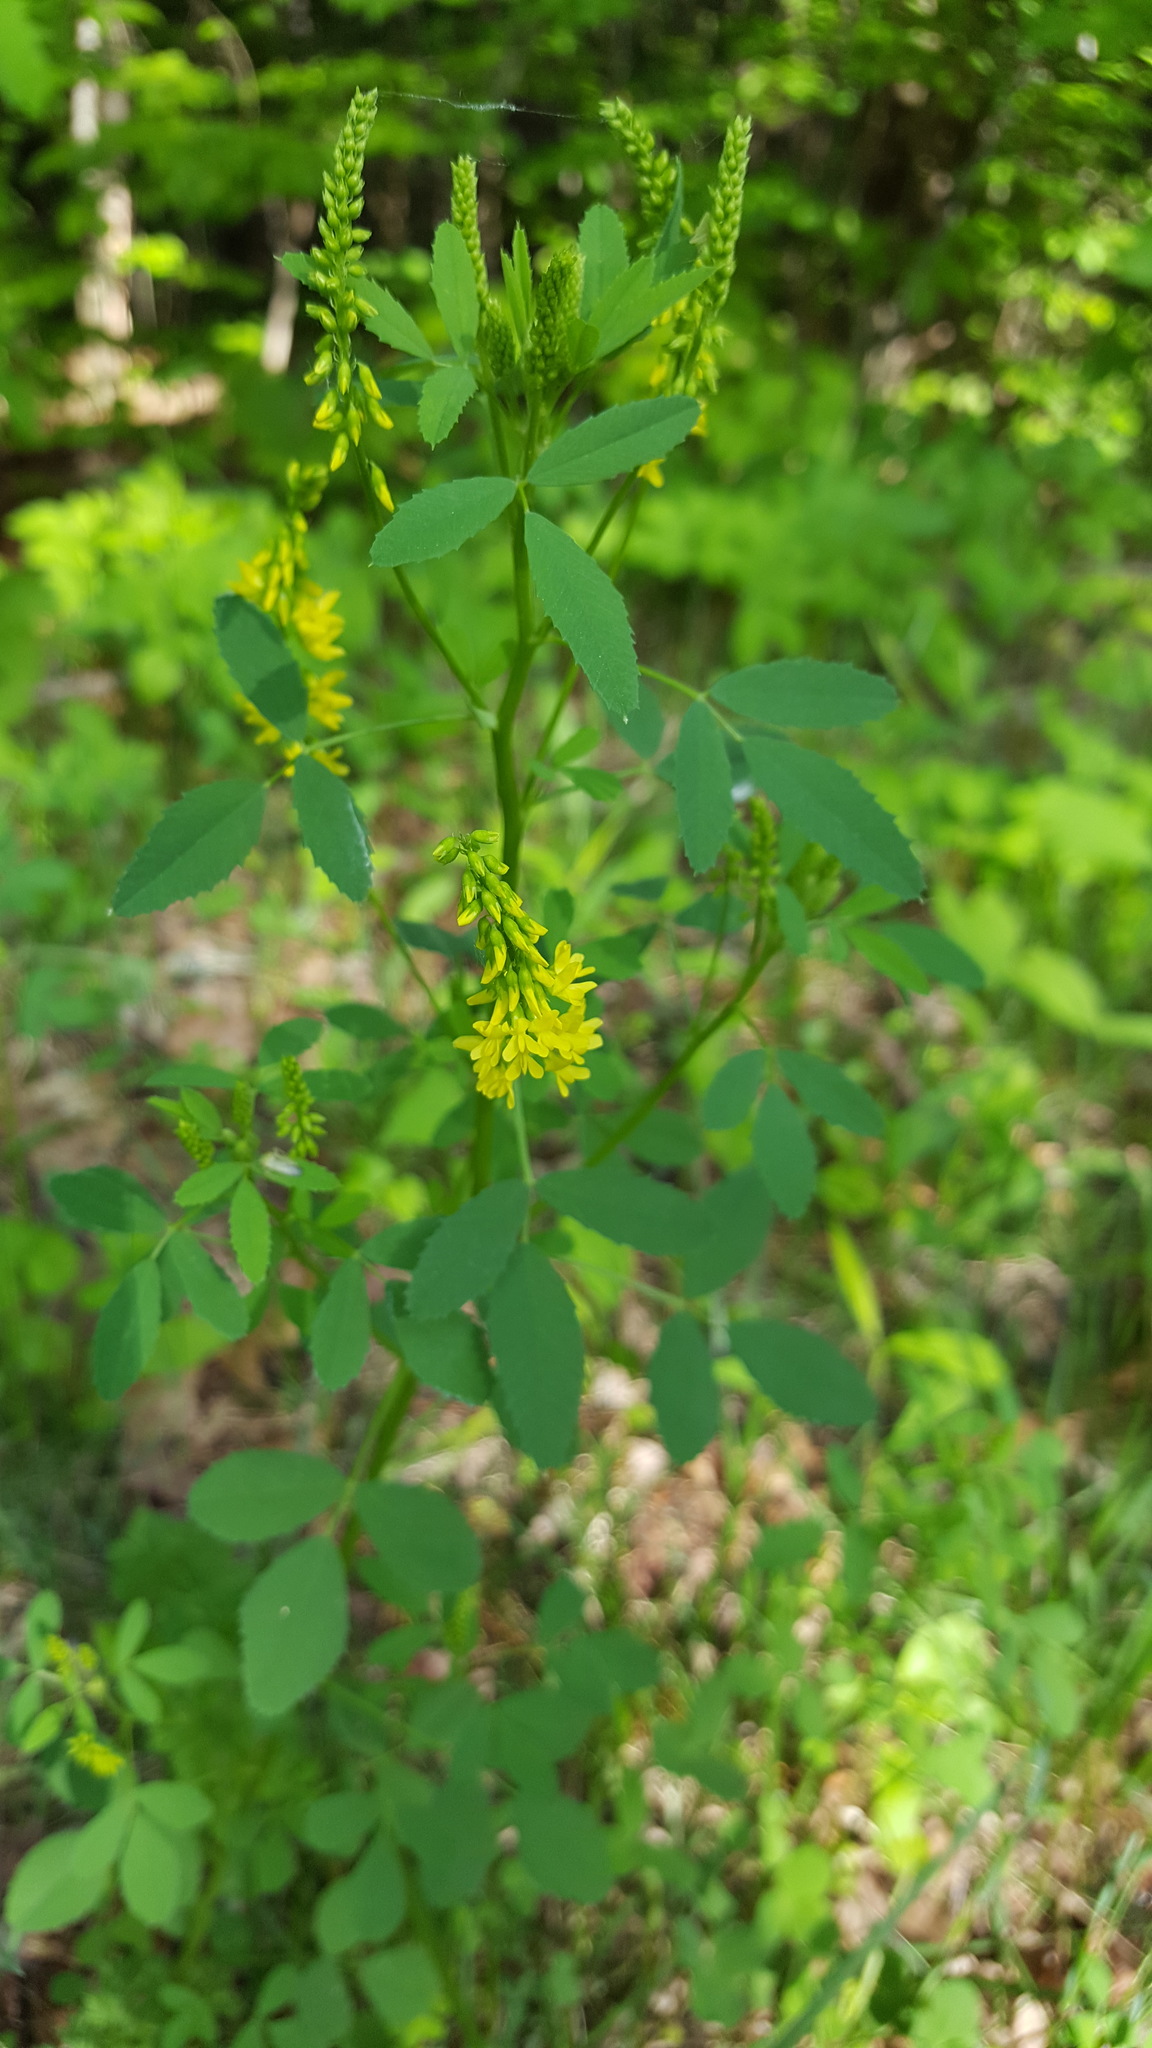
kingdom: Plantae
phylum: Tracheophyta
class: Magnoliopsida
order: Fabales
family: Fabaceae
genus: Melilotus
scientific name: Melilotus officinalis
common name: Sweetclover
